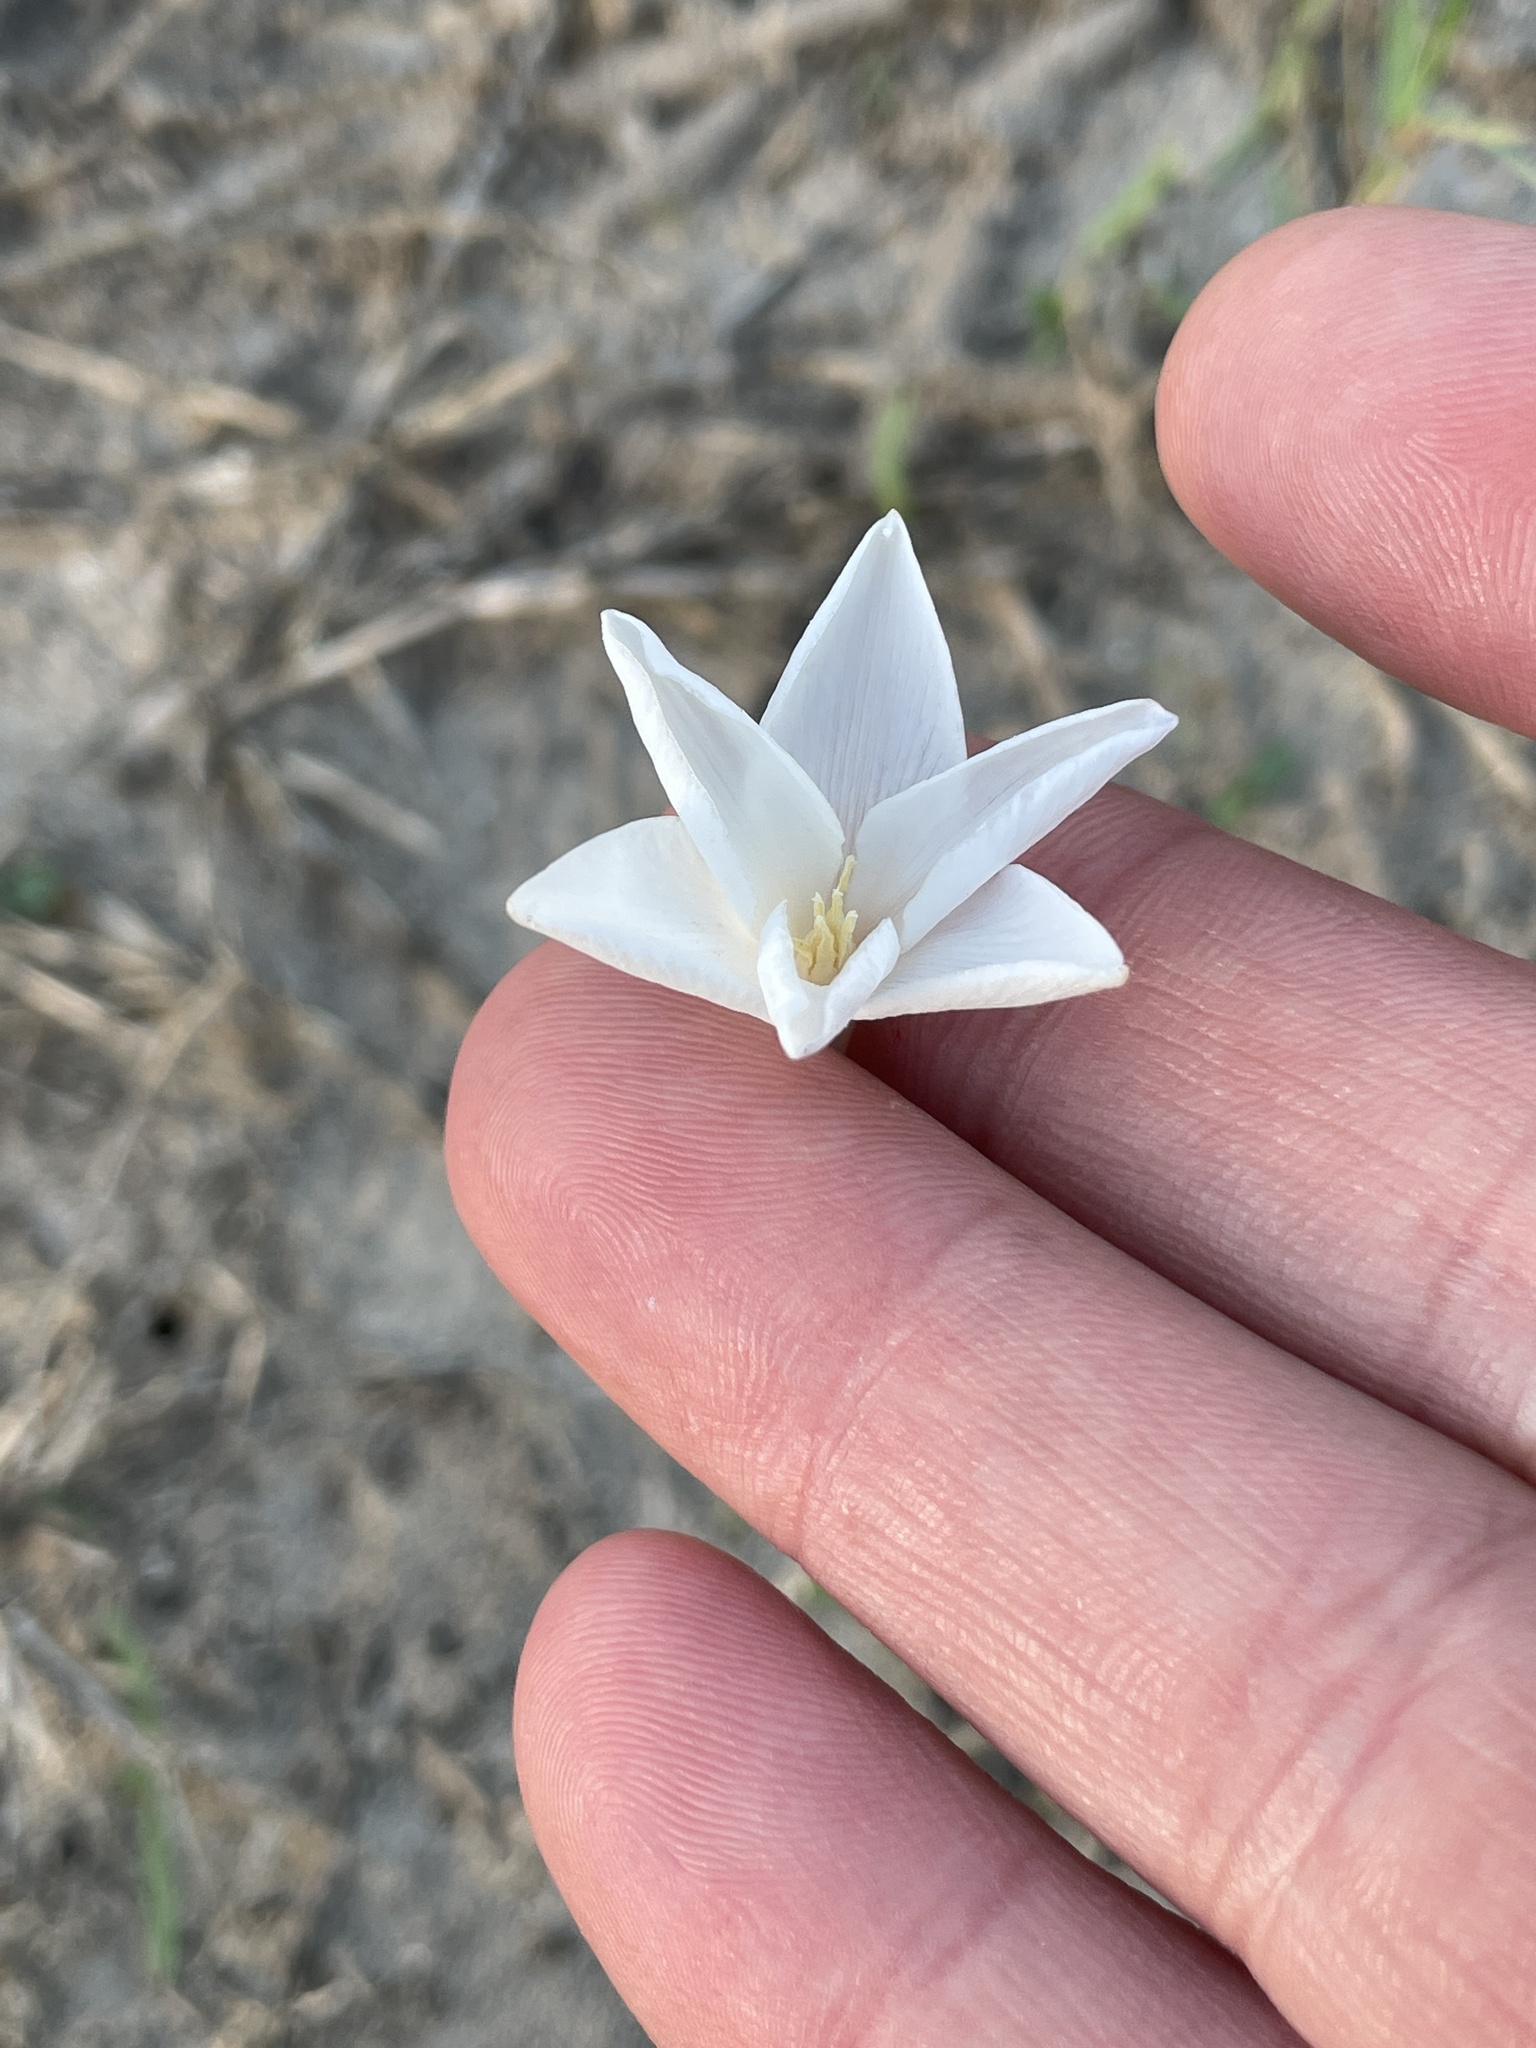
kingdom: Plantae
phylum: Tracheophyta
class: Liliopsida
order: Asparagales
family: Amaryllidaceae
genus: Zephyranthes
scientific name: Zephyranthes chlorosolen
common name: Evening rain-lily
